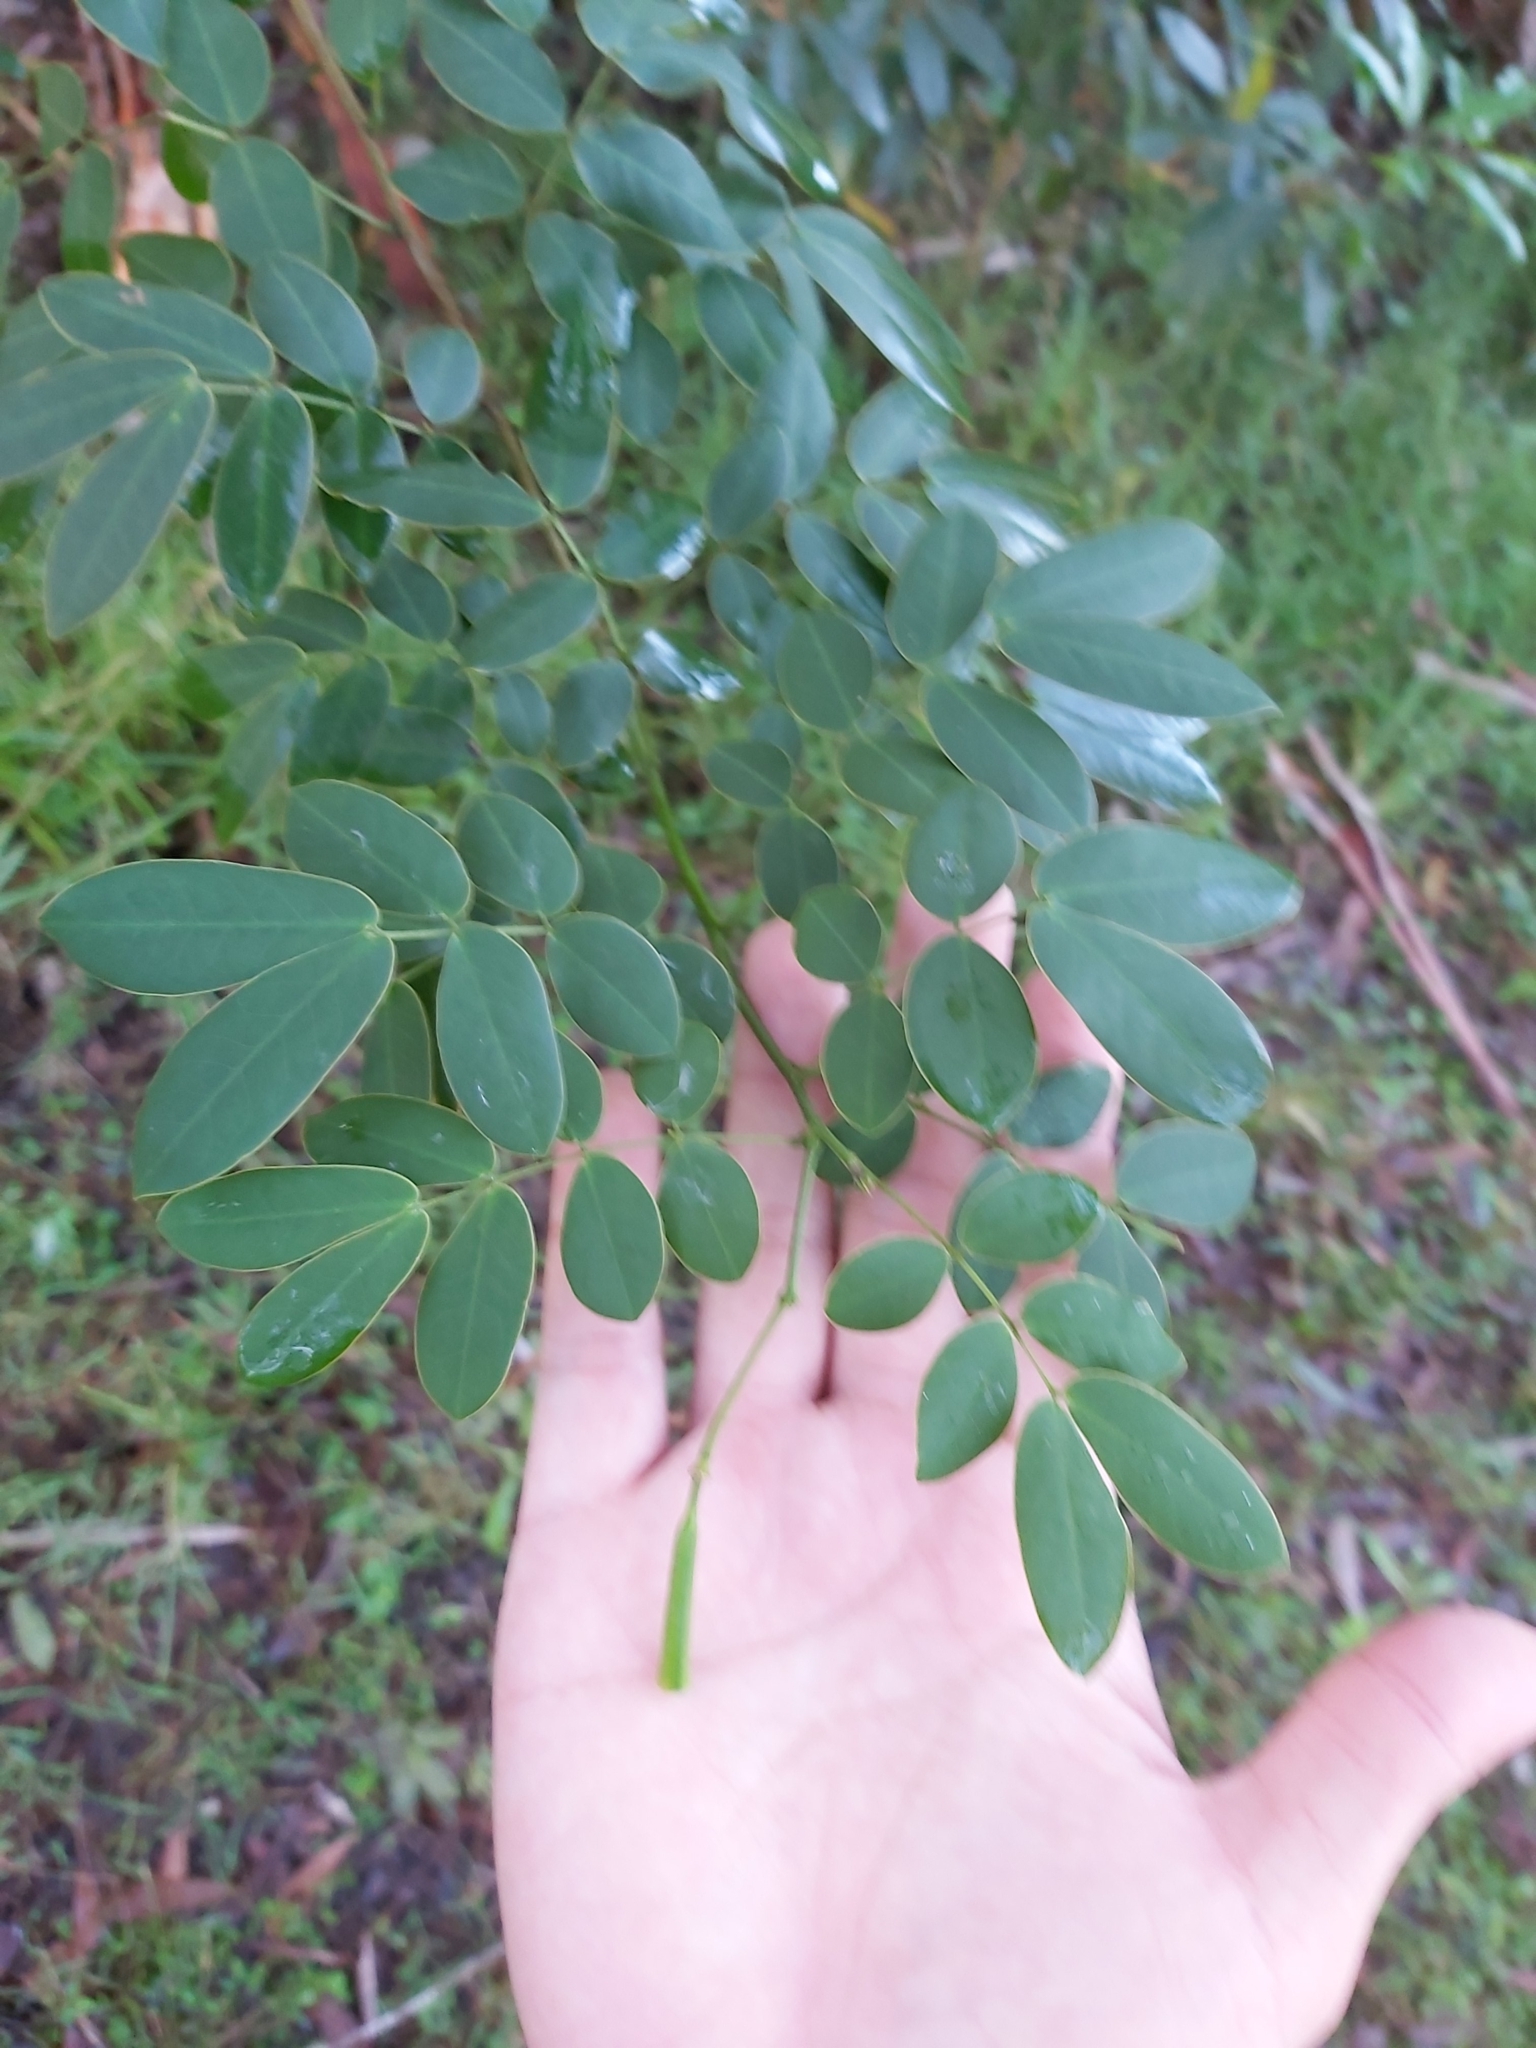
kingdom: Plantae
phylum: Tracheophyta
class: Magnoliopsida
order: Fabales
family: Fabaceae
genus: Senna
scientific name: Senna pendula
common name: Easter cassia
